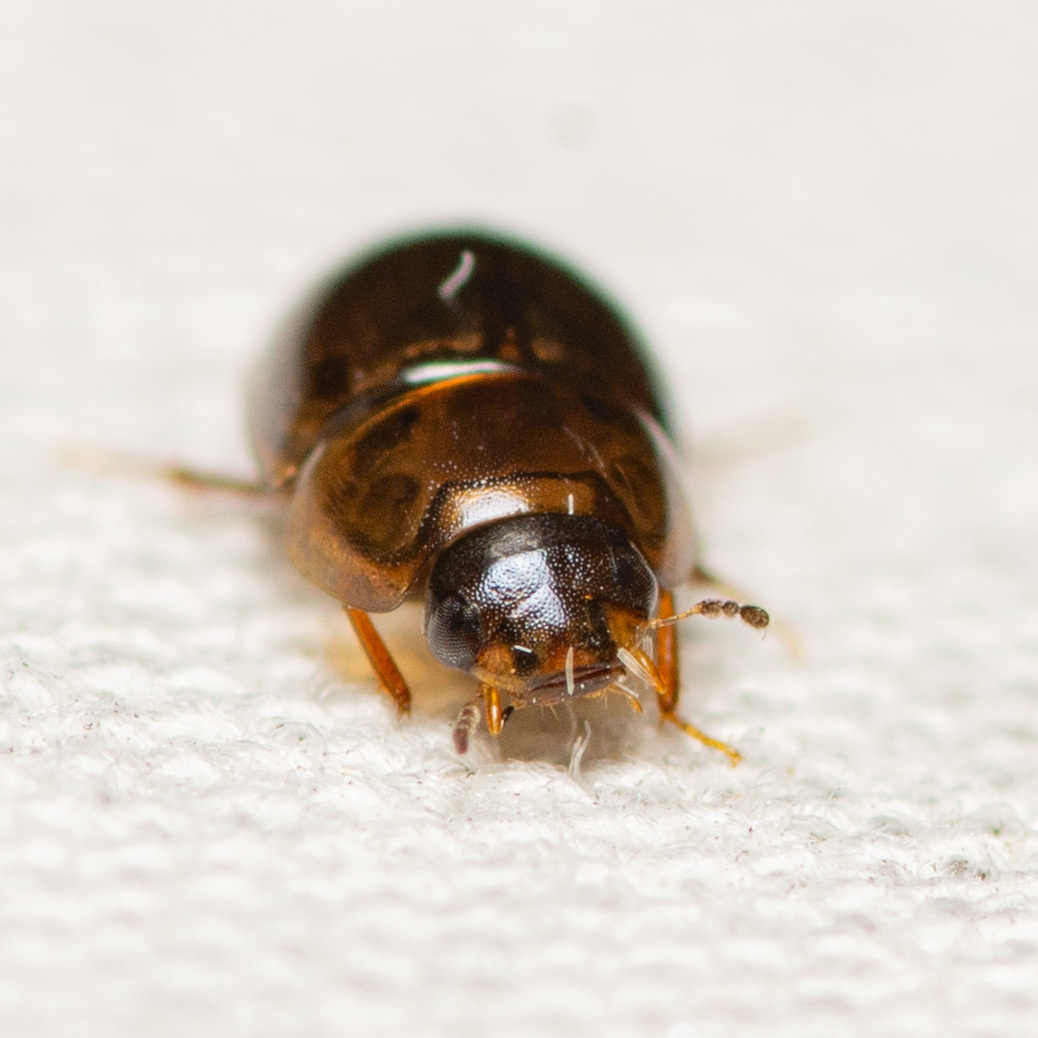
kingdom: Animalia
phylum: Arthropoda
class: Insecta
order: Coleoptera
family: Hydrophilidae
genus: Enochrus
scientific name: Enochrus
